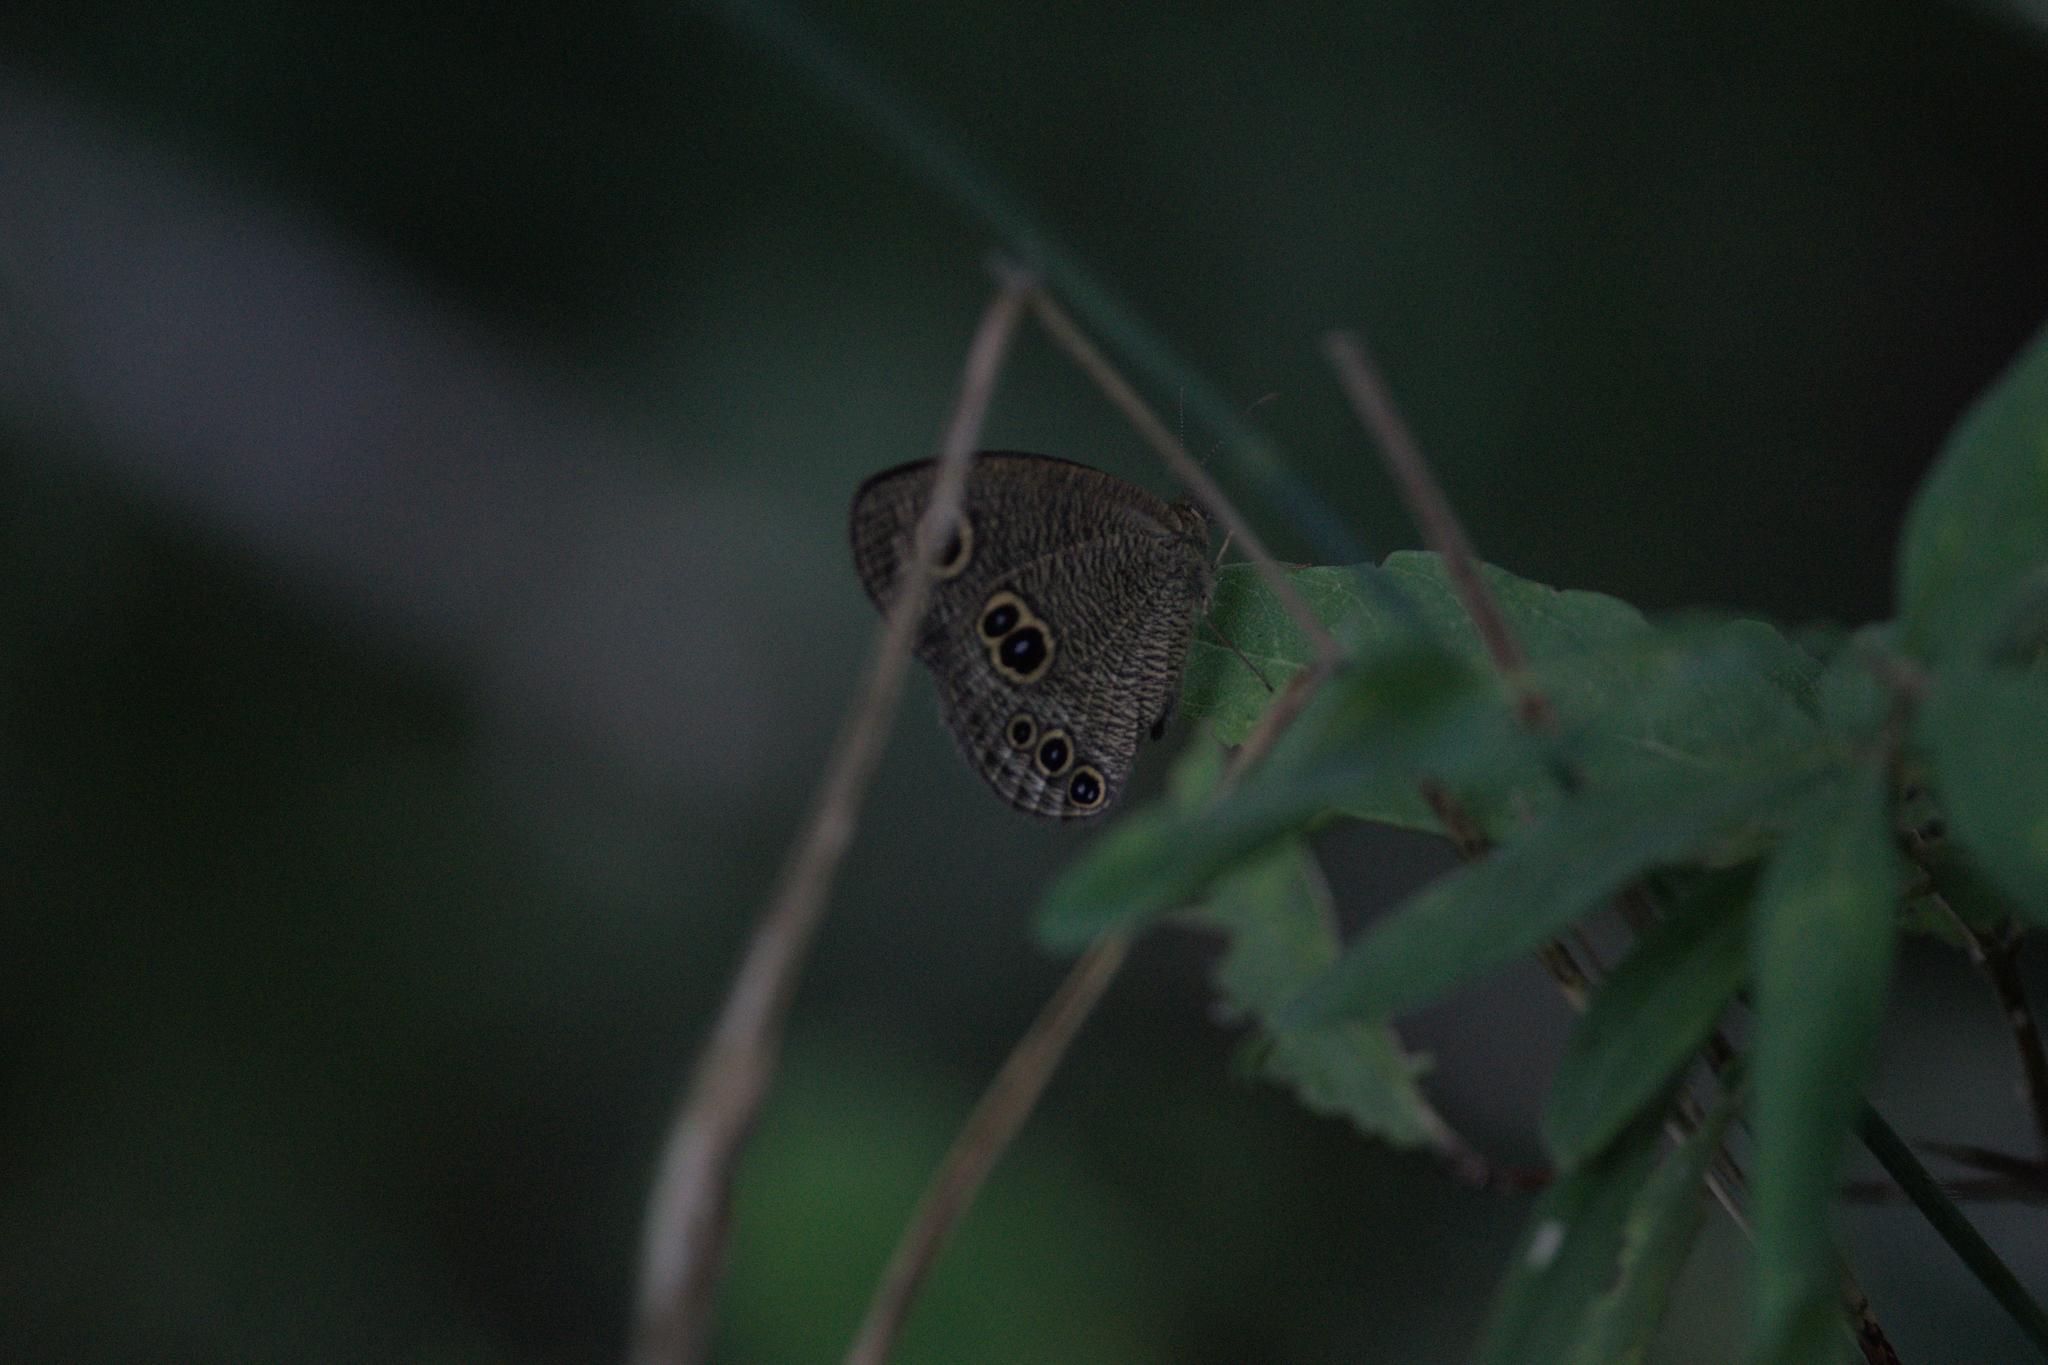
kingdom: Animalia
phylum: Arthropoda
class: Insecta
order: Lepidoptera
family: Nymphalidae
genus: Ypthima
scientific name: Ypthima nikaea
